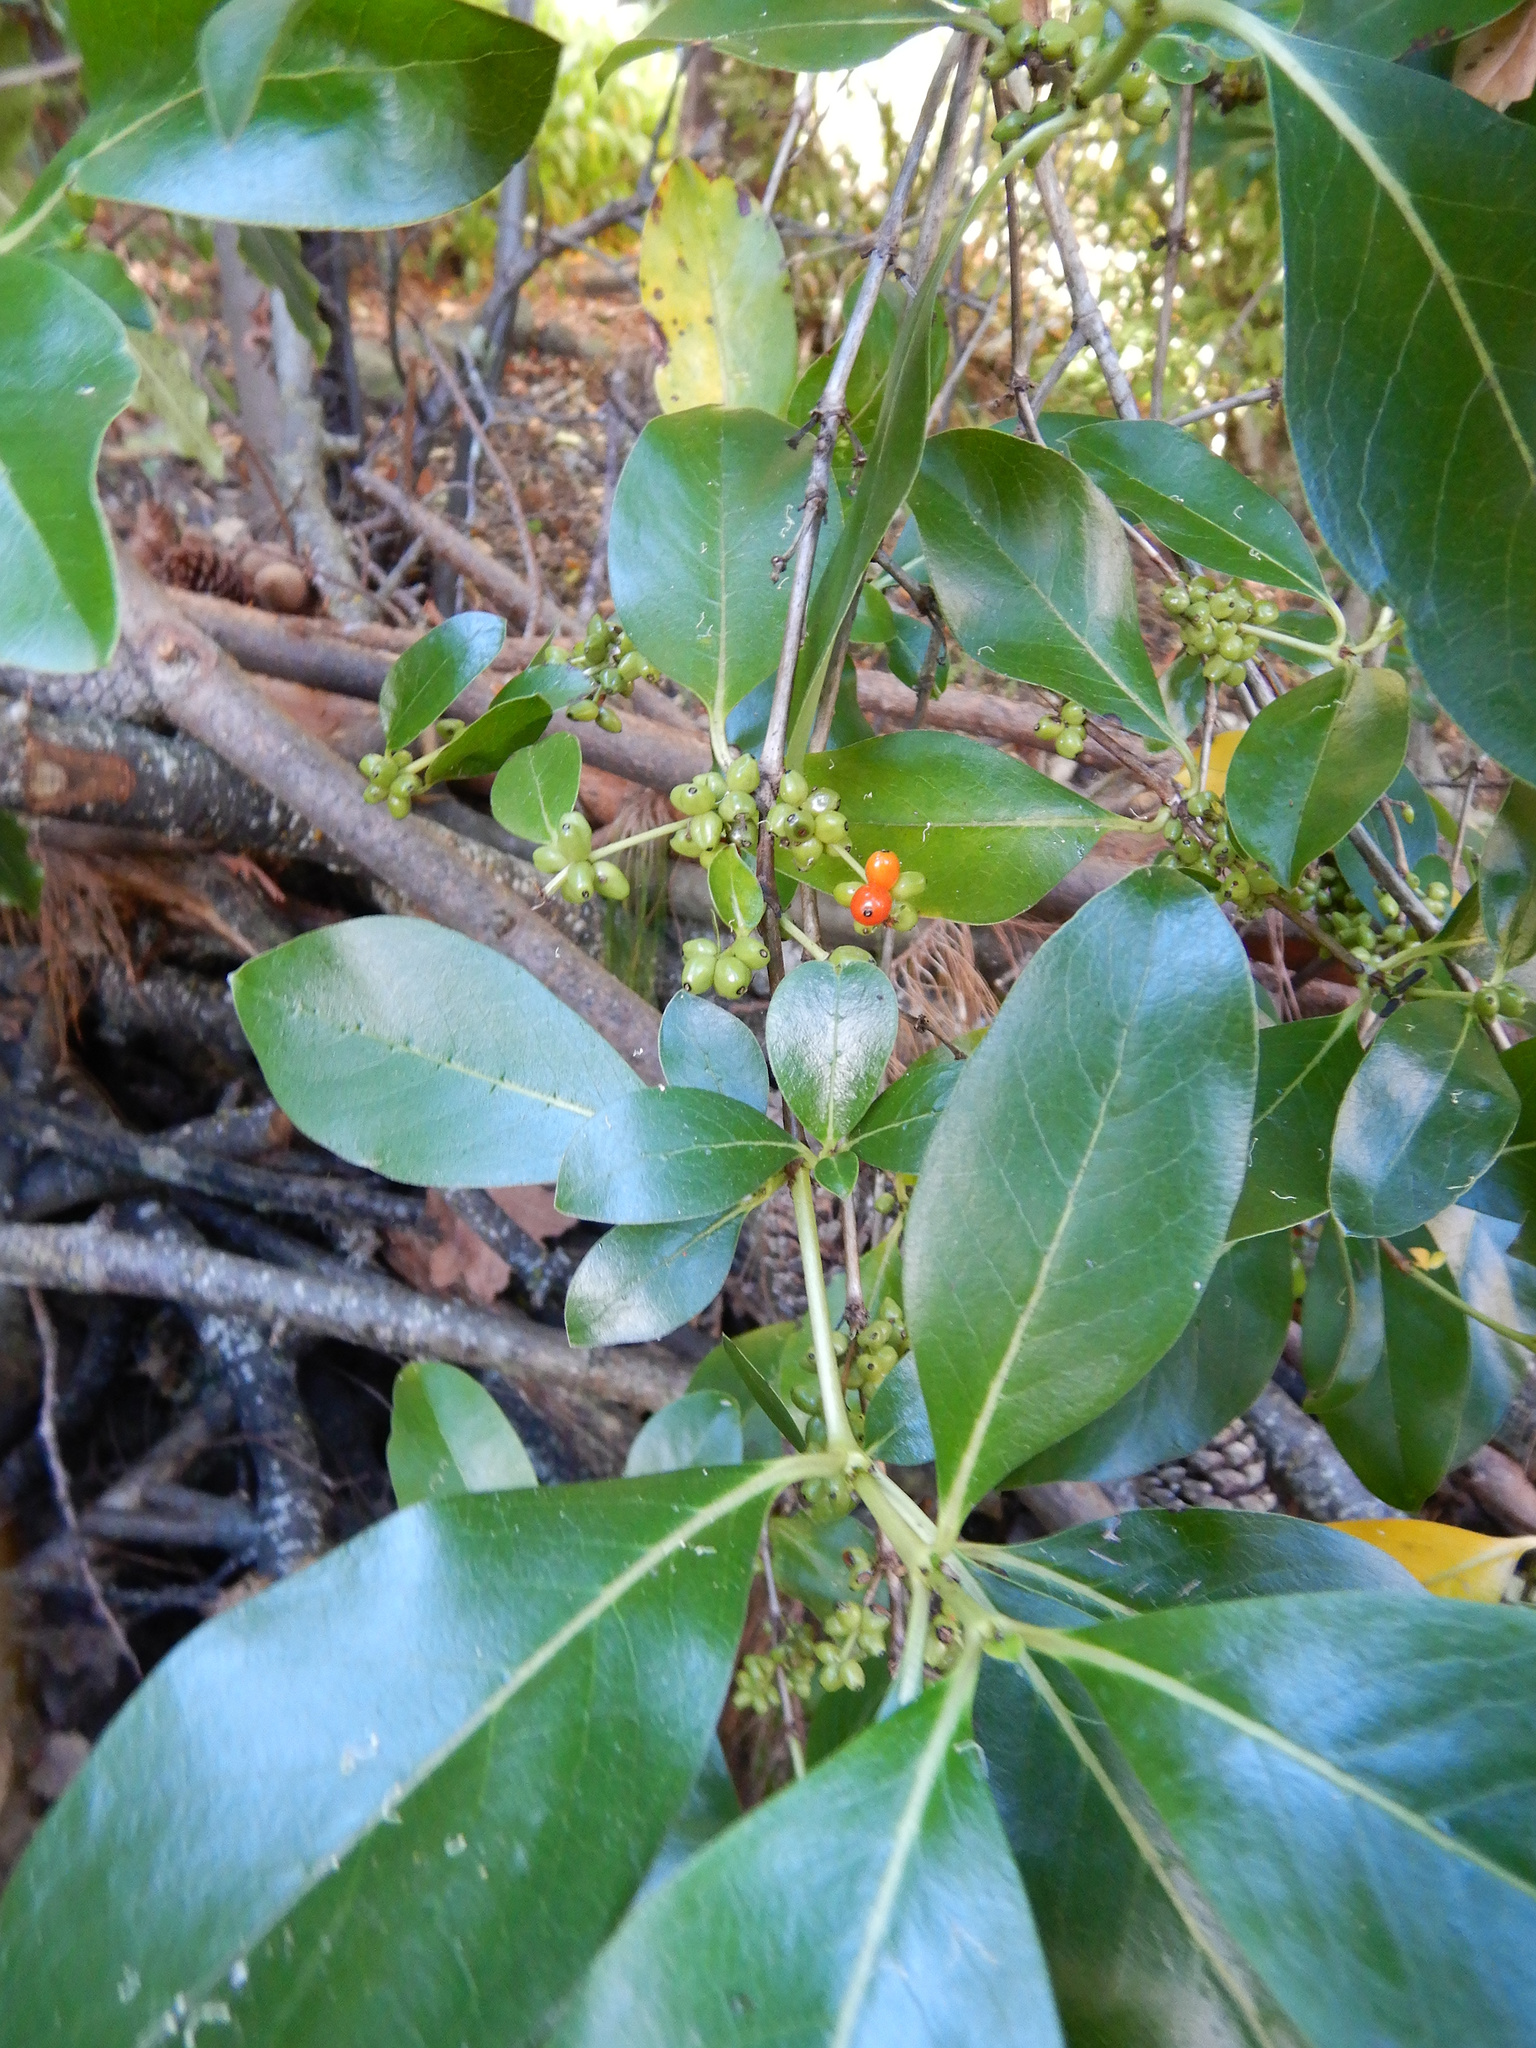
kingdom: Plantae
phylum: Tracheophyta
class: Magnoliopsida
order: Gentianales
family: Rubiaceae
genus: Coprosma
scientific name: Coprosma robusta
